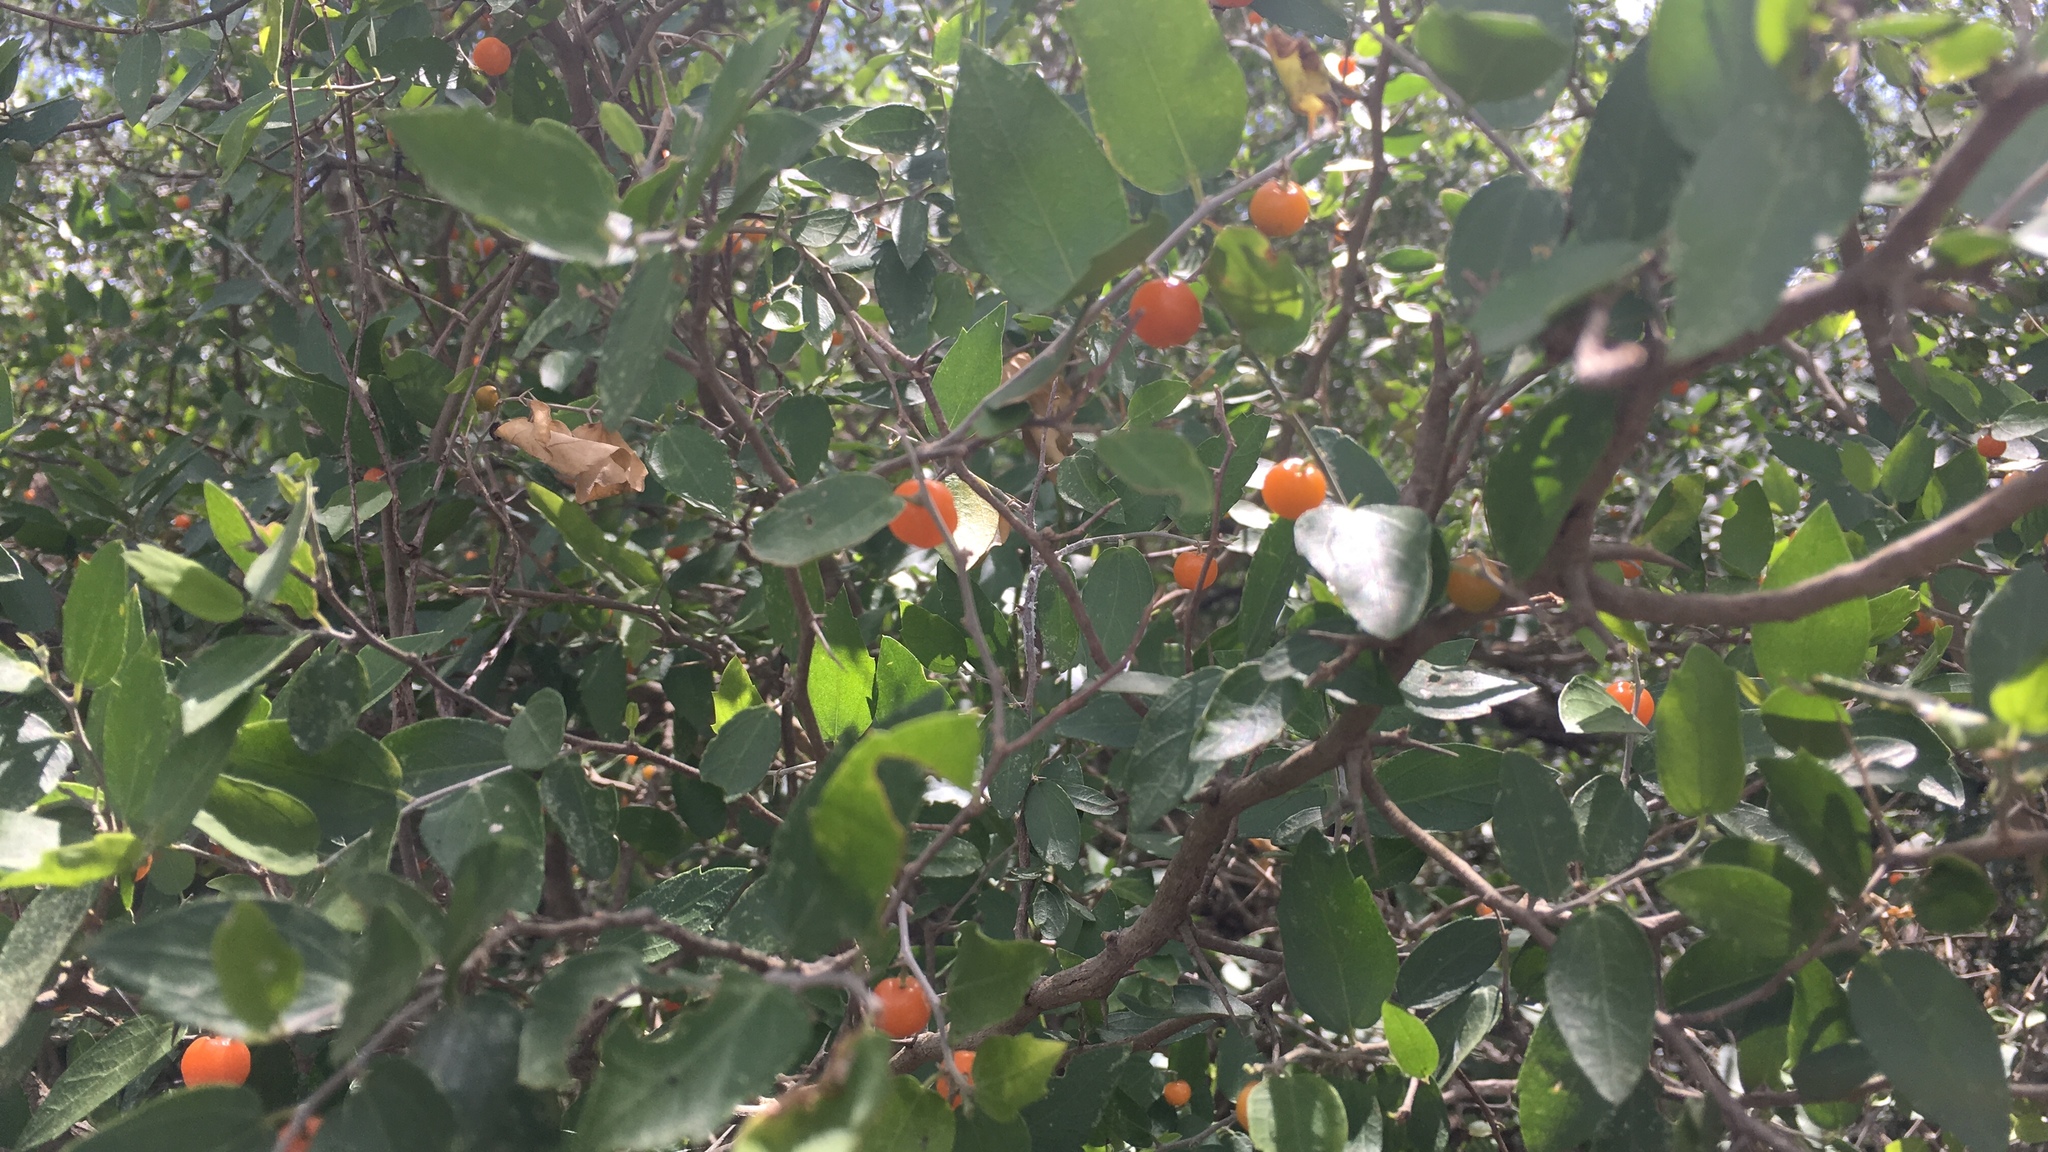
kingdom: Plantae
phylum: Tracheophyta
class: Magnoliopsida
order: Rosales
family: Cannabaceae
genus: Celtis
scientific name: Celtis pallida
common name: Desert hackberry
